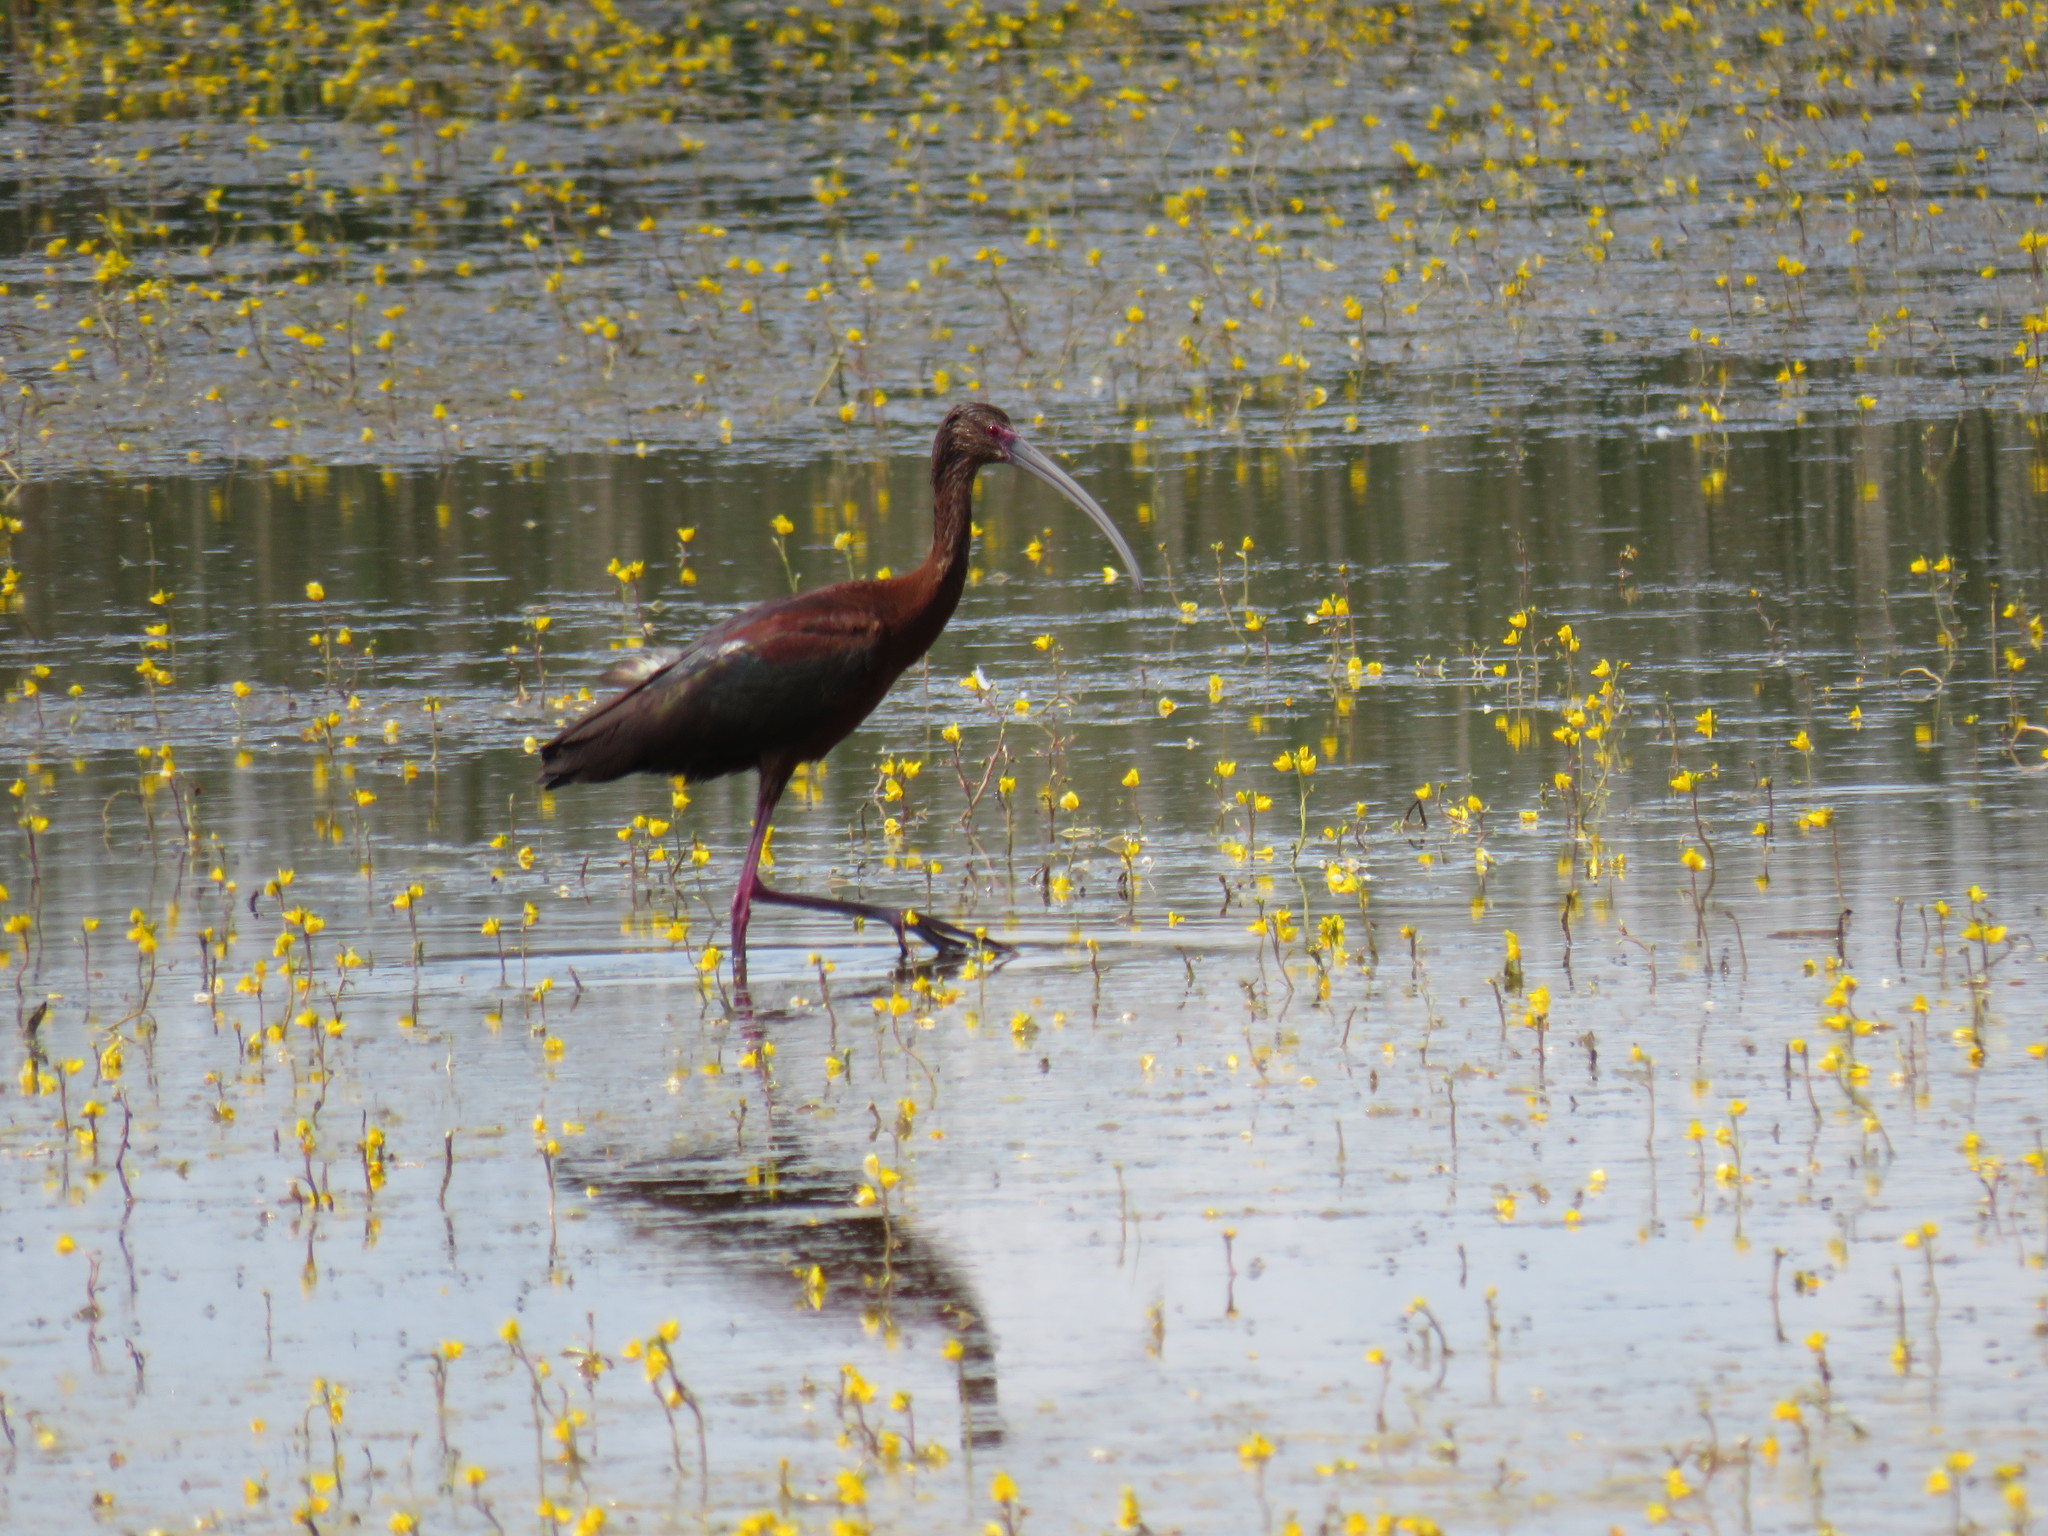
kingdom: Animalia
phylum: Chordata
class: Aves
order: Pelecaniformes
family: Threskiornithidae
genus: Plegadis
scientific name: Plegadis chihi
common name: White-faced ibis
